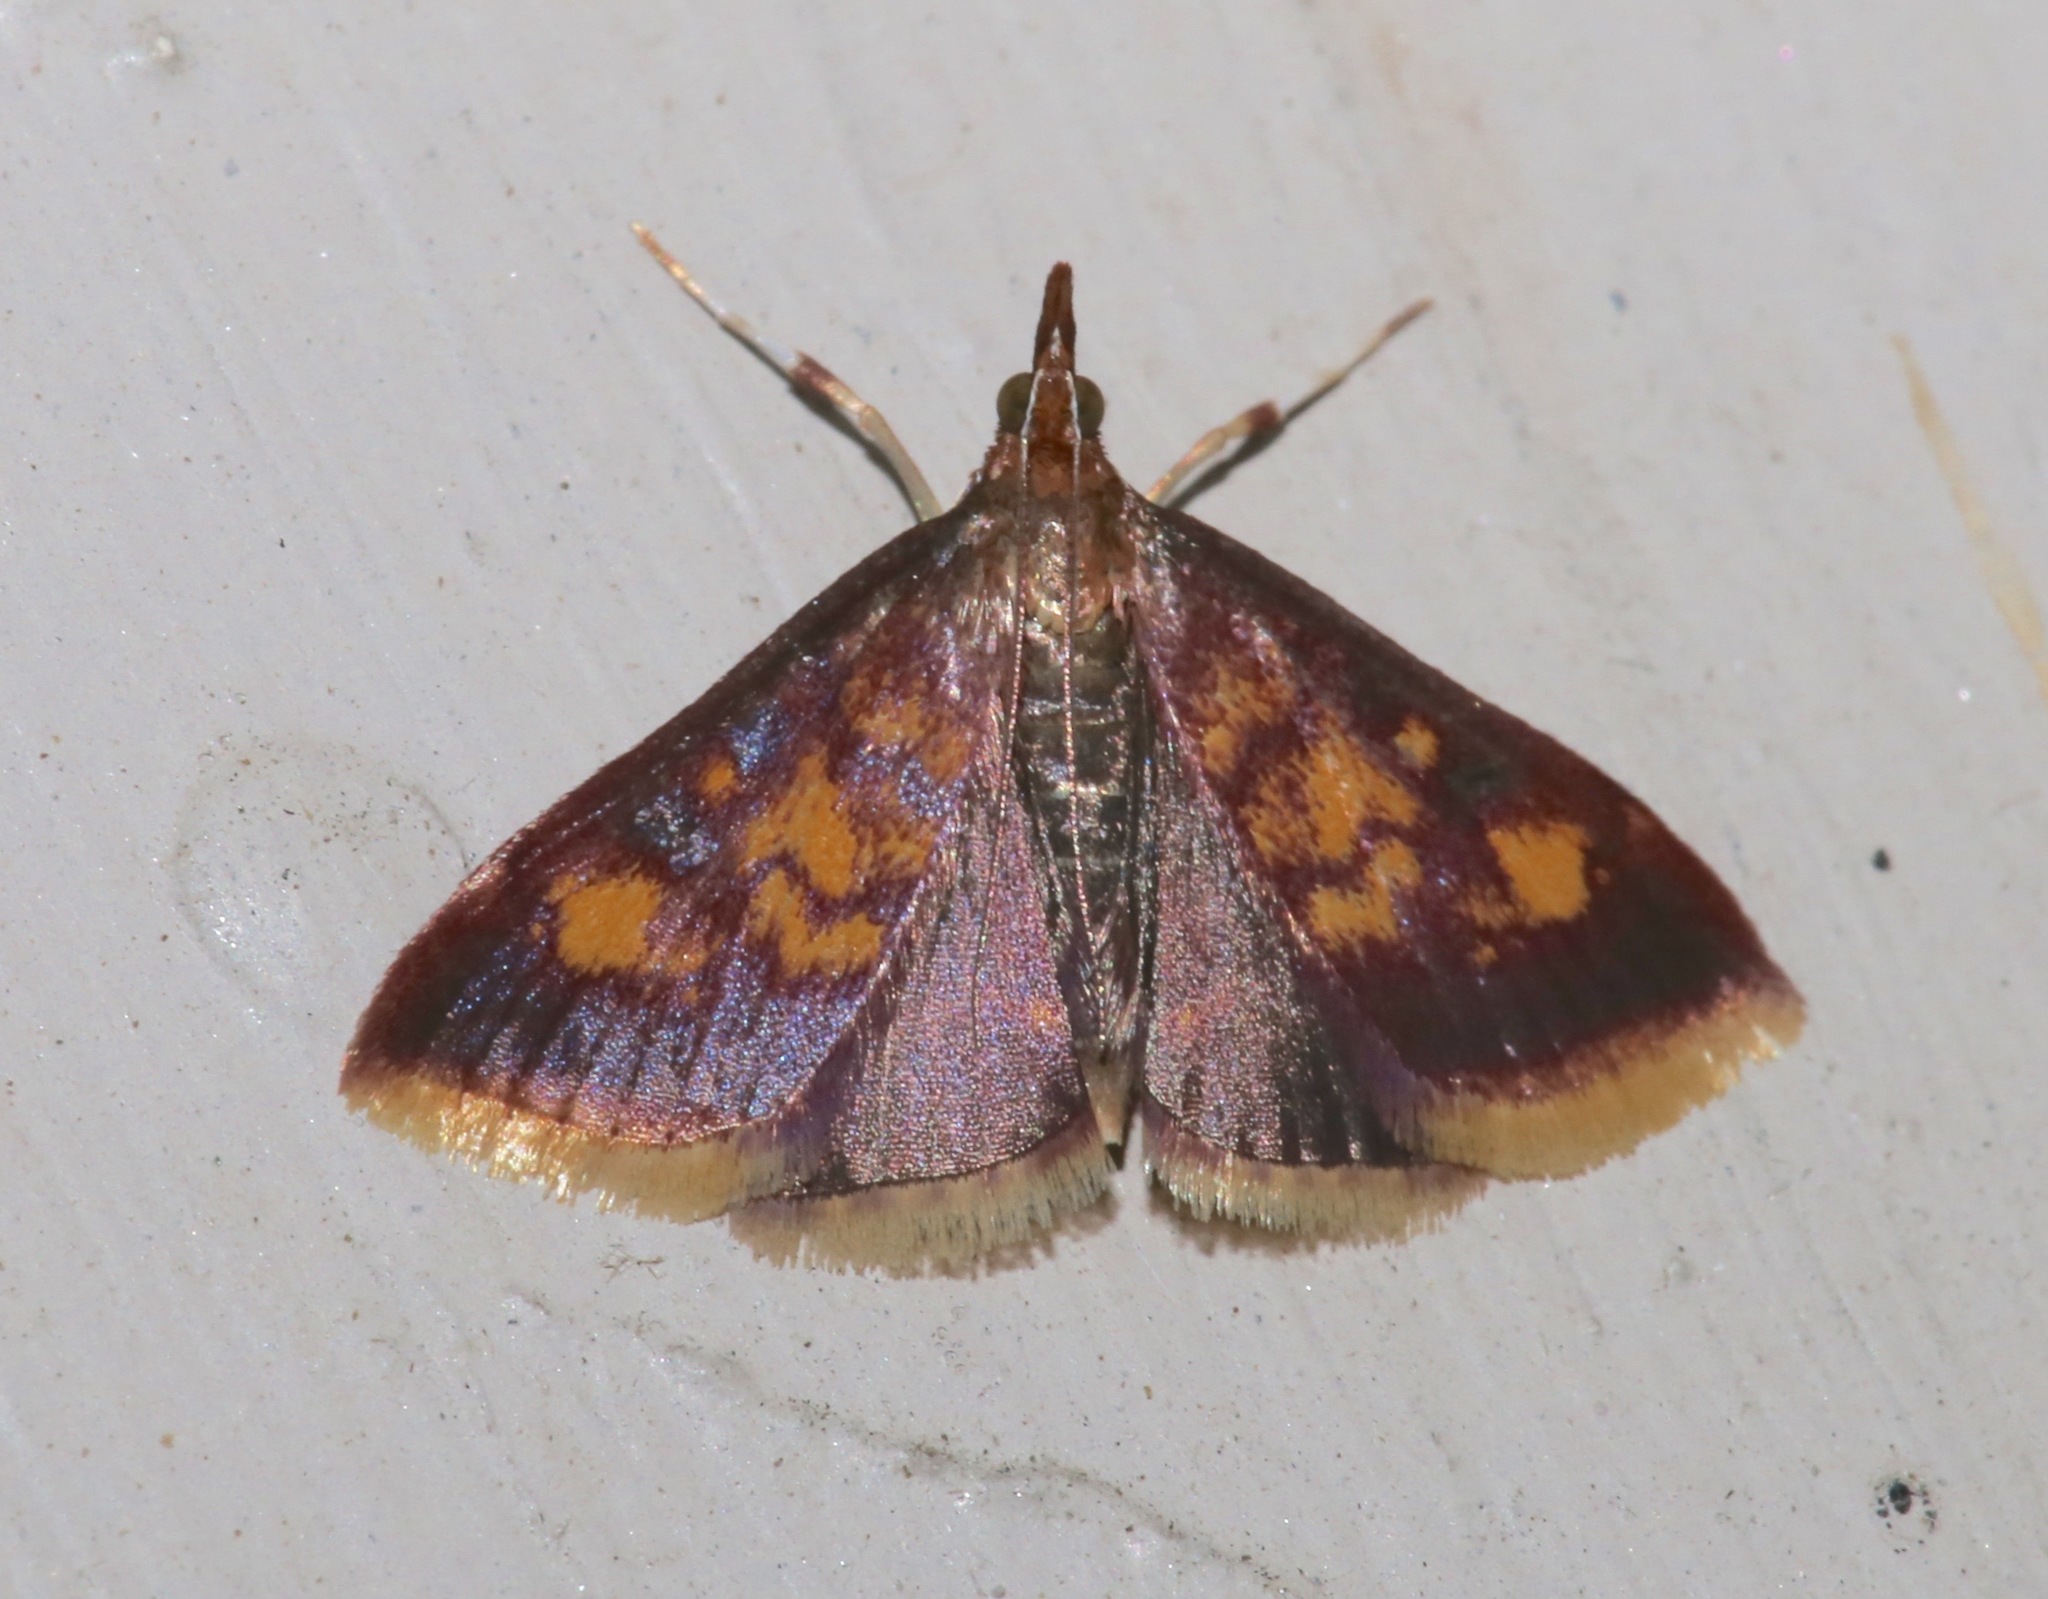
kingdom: Animalia
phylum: Arthropoda
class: Insecta
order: Lepidoptera
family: Crambidae
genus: Pyrausta
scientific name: Pyrausta acrionalis
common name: Mint-loving pyrausta moth
